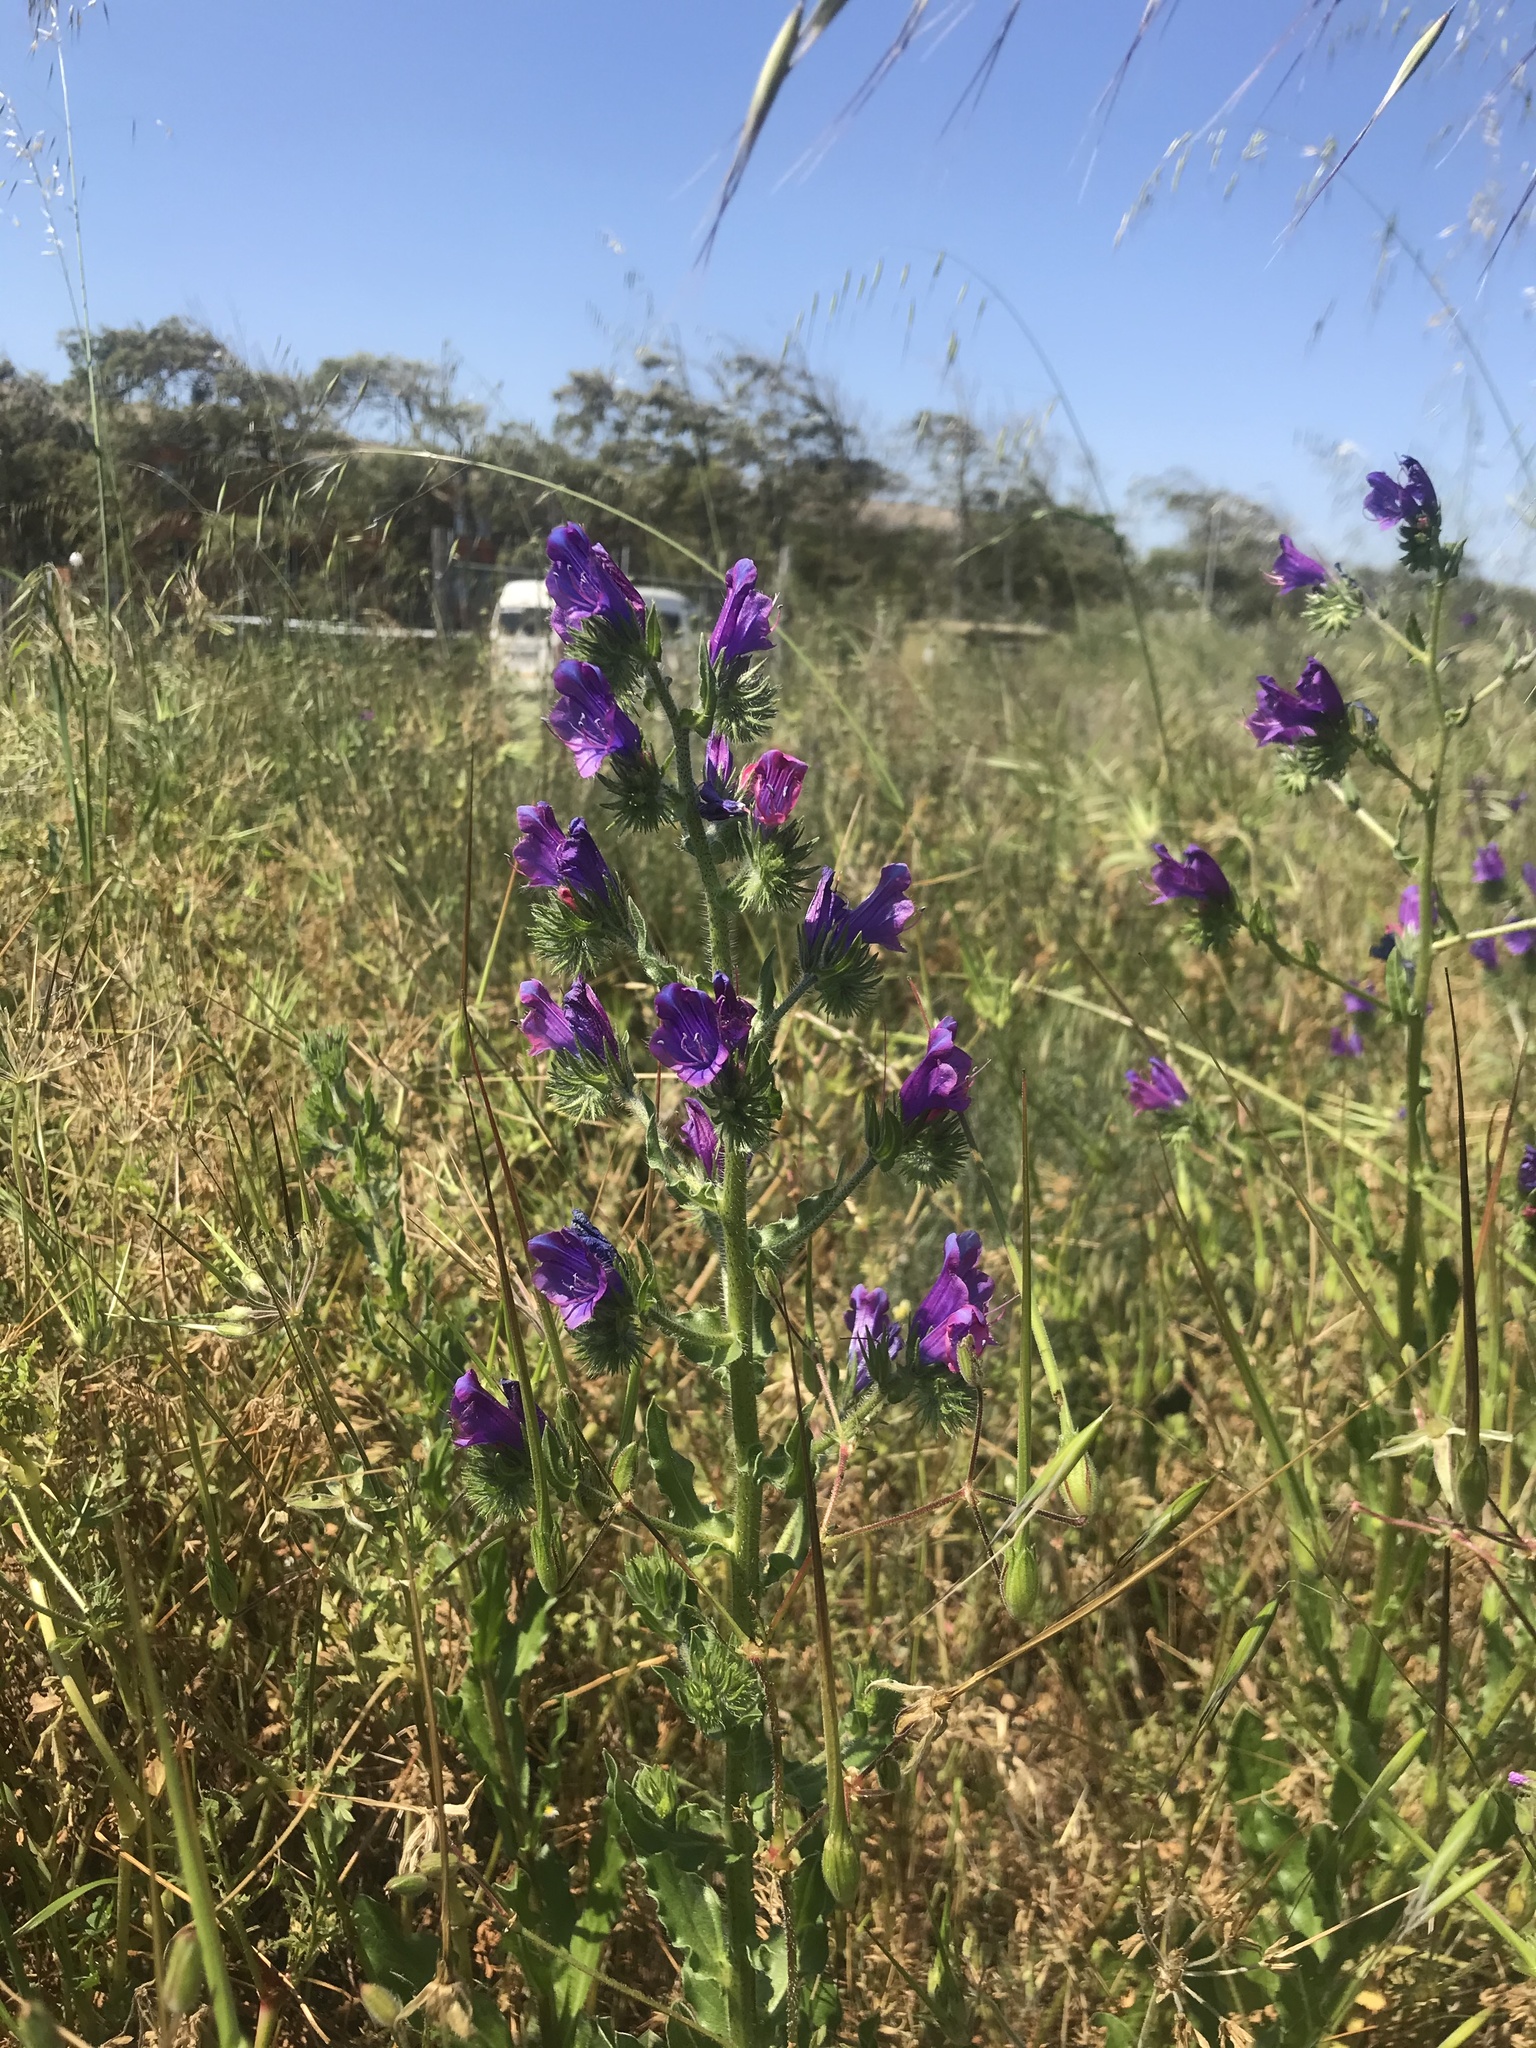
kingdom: Plantae
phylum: Tracheophyta
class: Magnoliopsida
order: Boraginales
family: Boraginaceae
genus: Echium
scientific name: Echium plantagineum
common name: Purple viper's-bugloss
